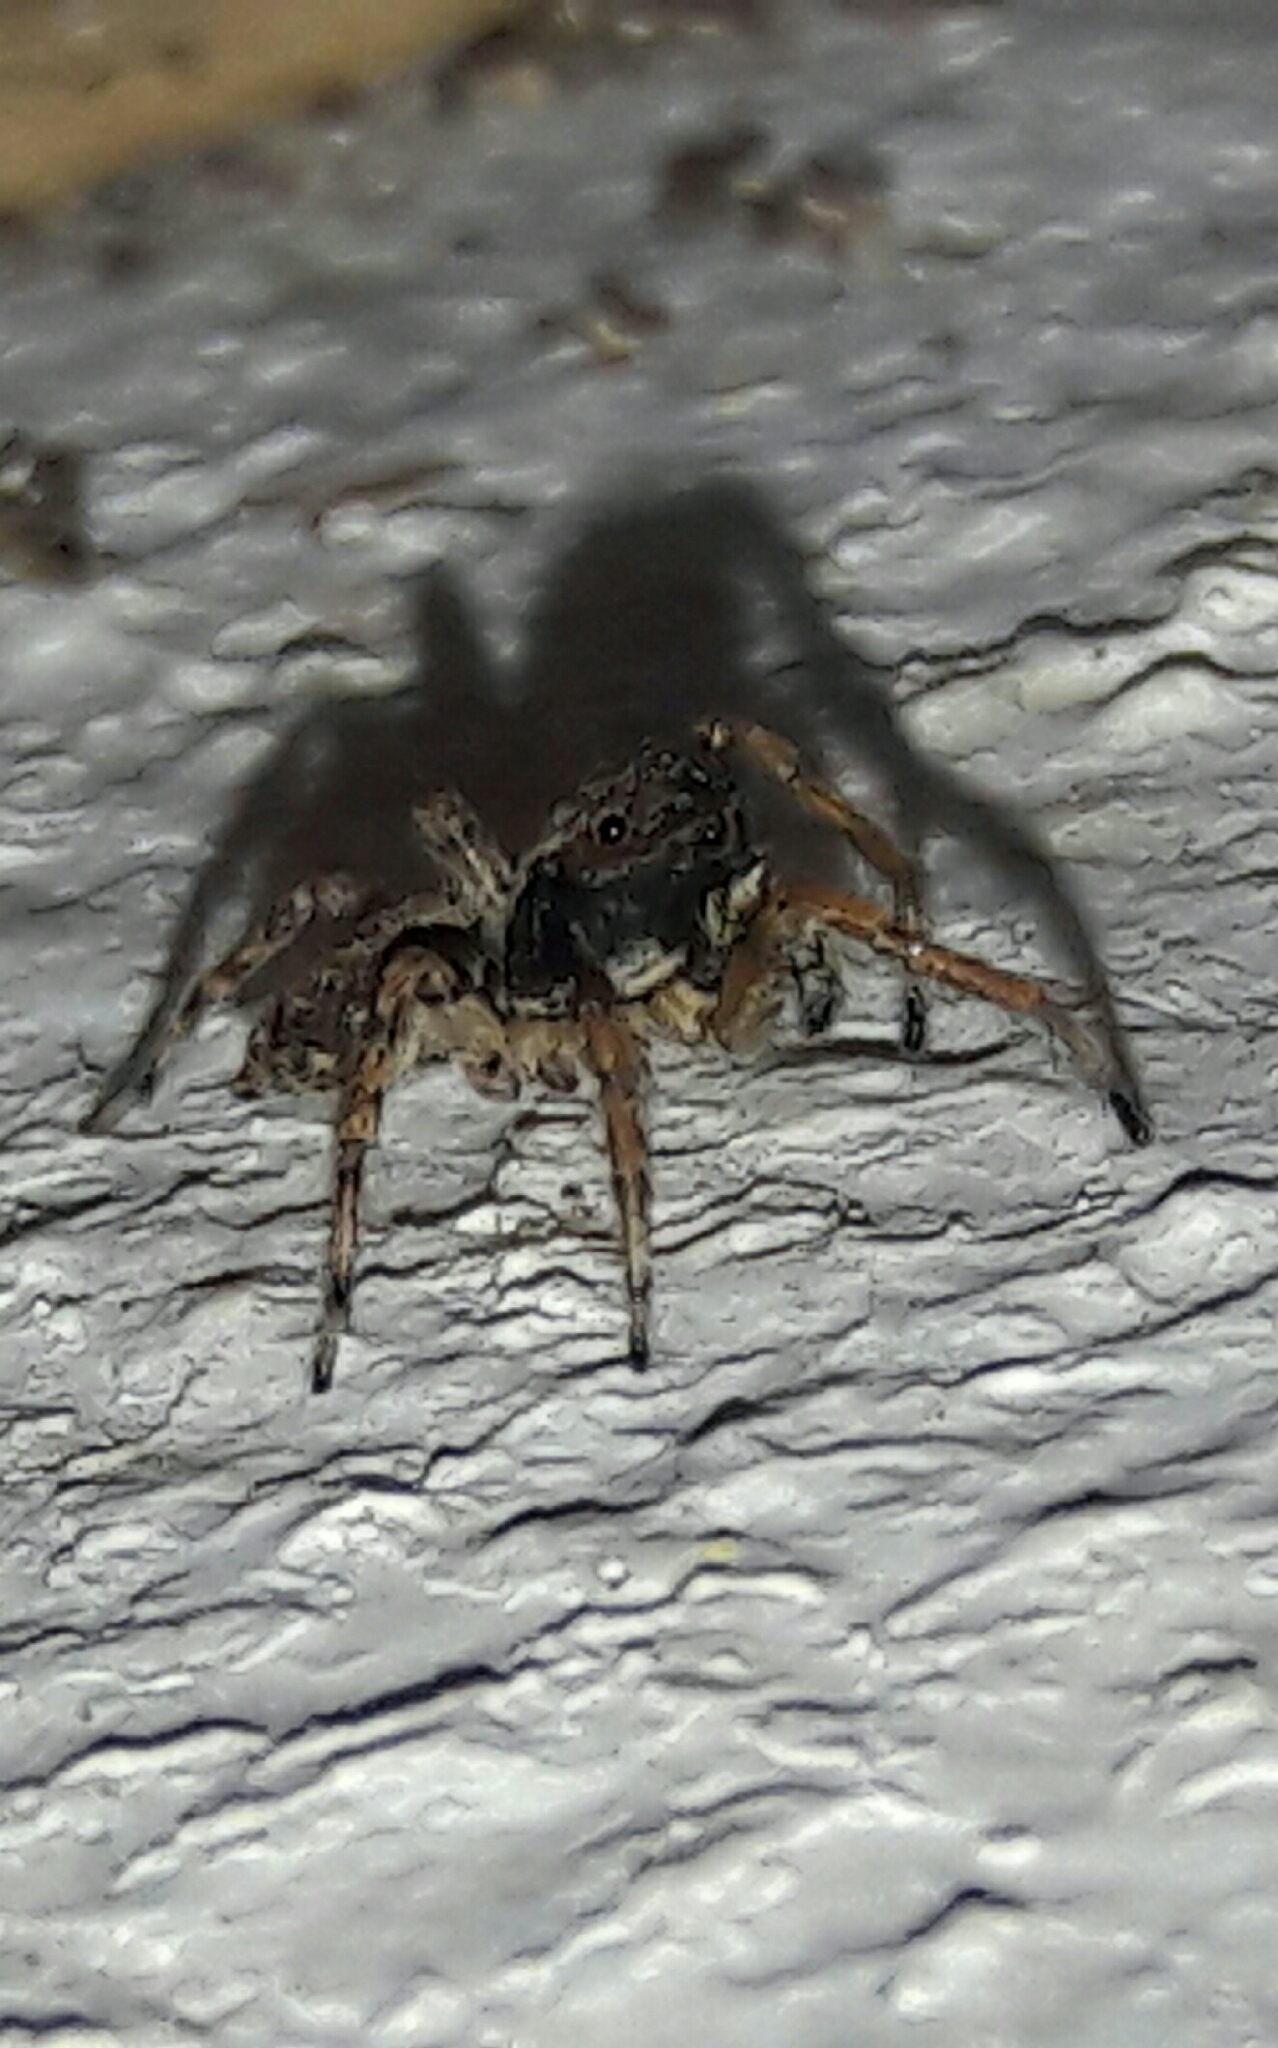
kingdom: Animalia
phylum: Arthropoda
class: Arachnida
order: Araneae
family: Salticidae
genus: Marma
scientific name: Marma nigritarsis
